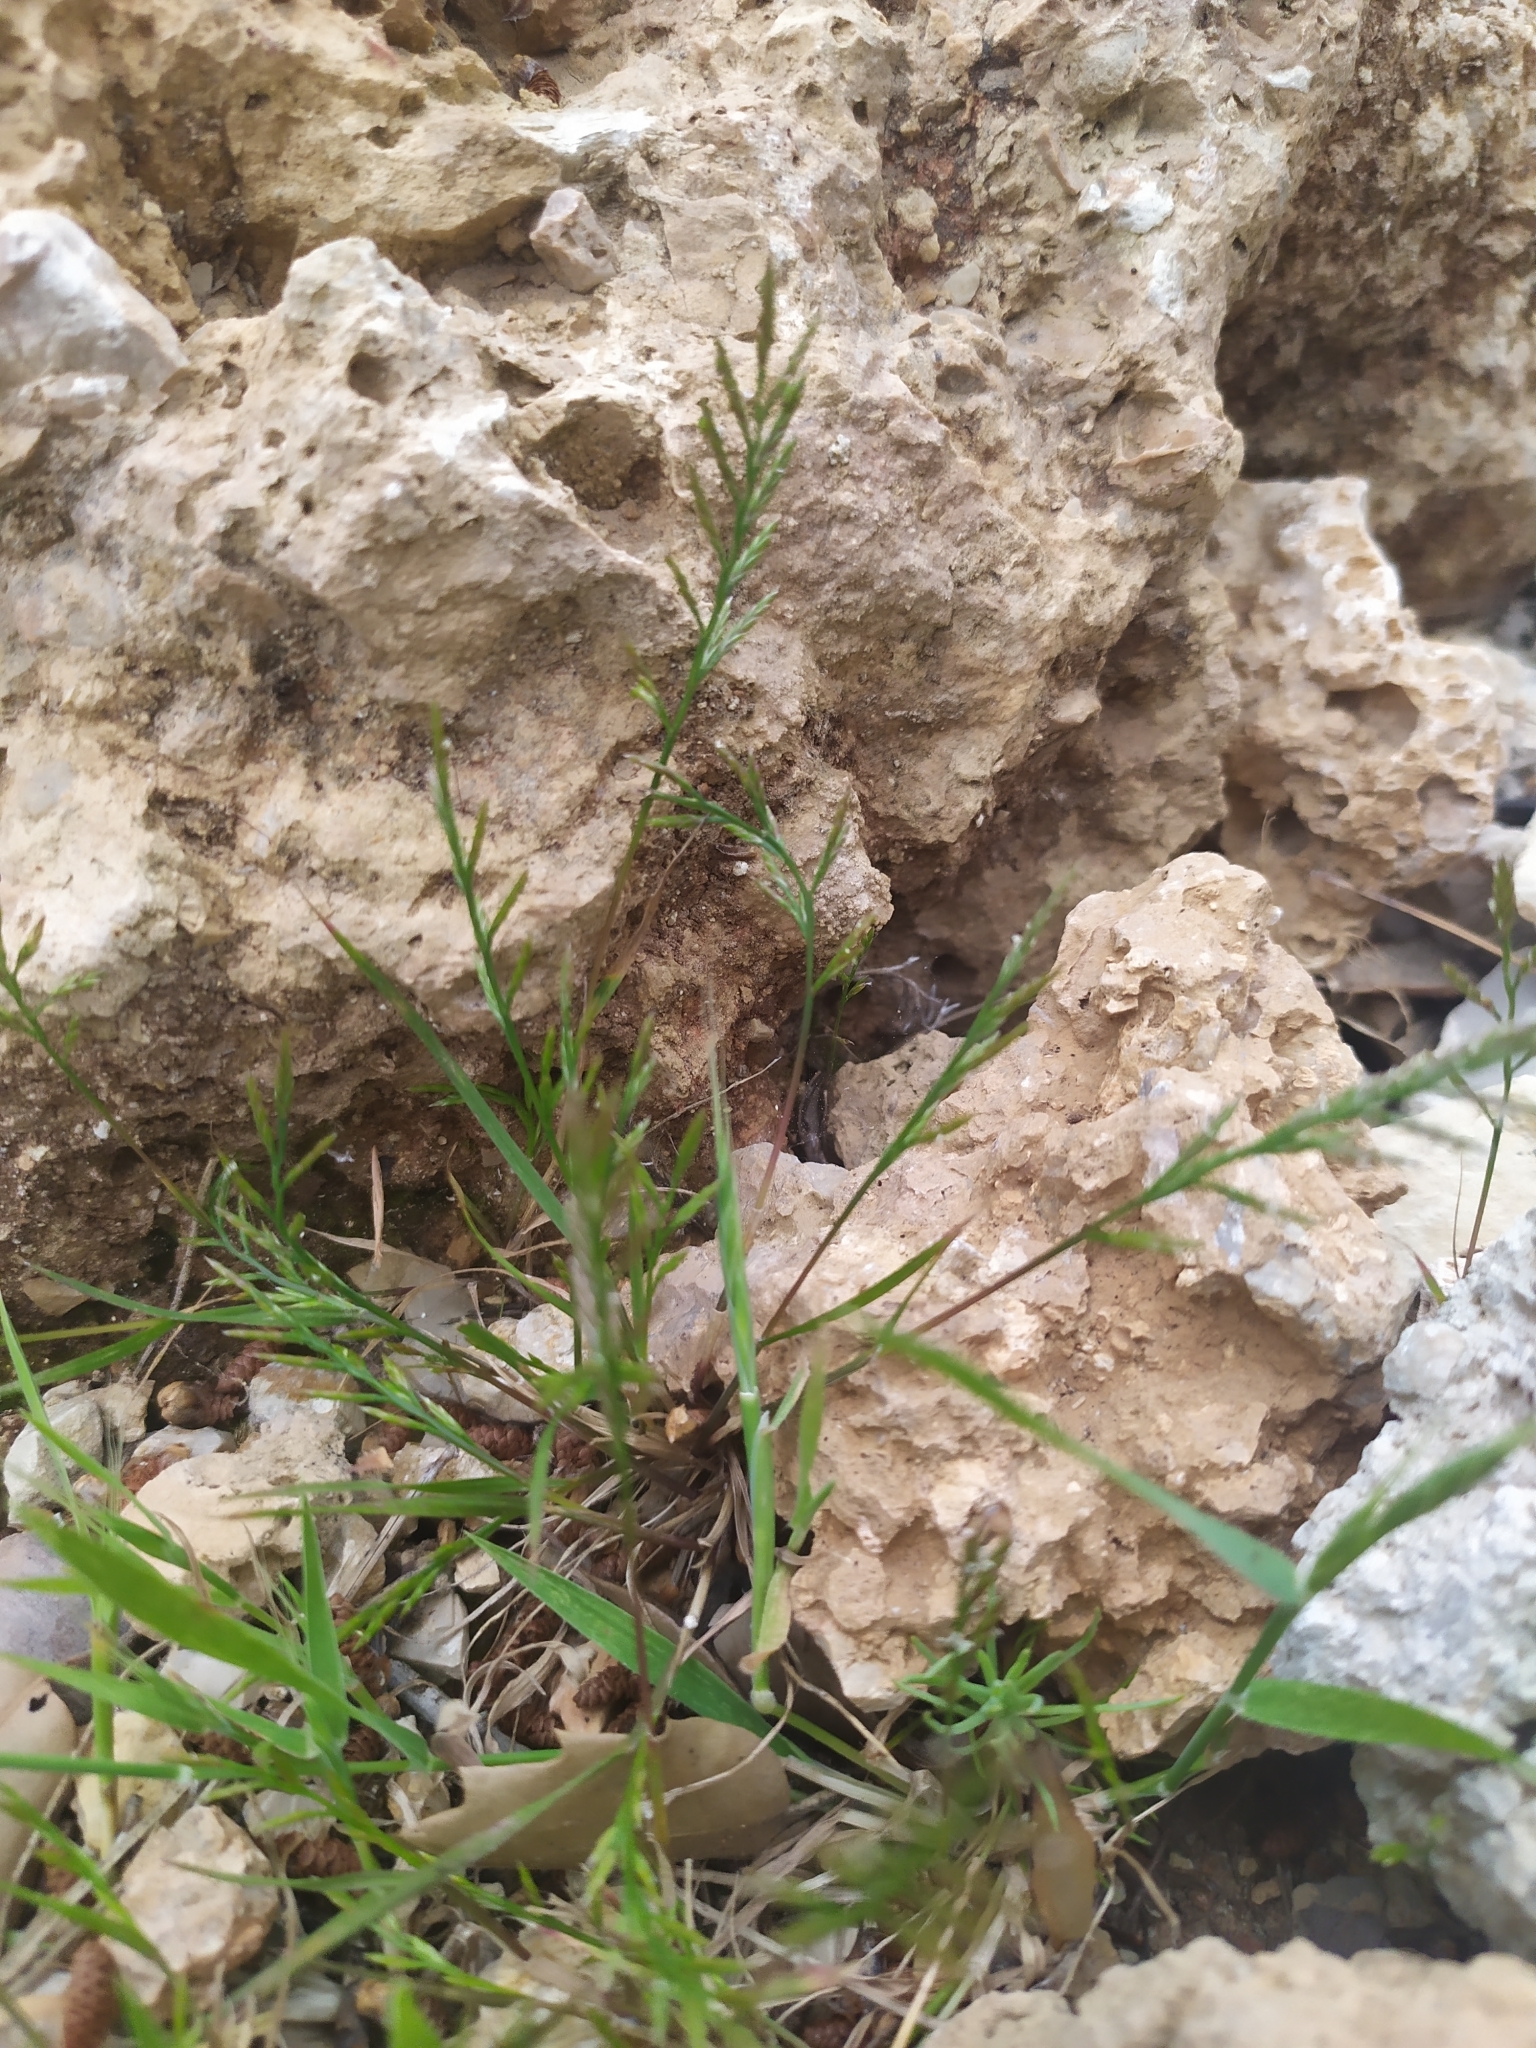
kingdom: Plantae
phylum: Tracheophyta
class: Liliopsida
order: Poales
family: Poaceae
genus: Catapodium
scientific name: Catapodium rigidum
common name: Fern-grass
